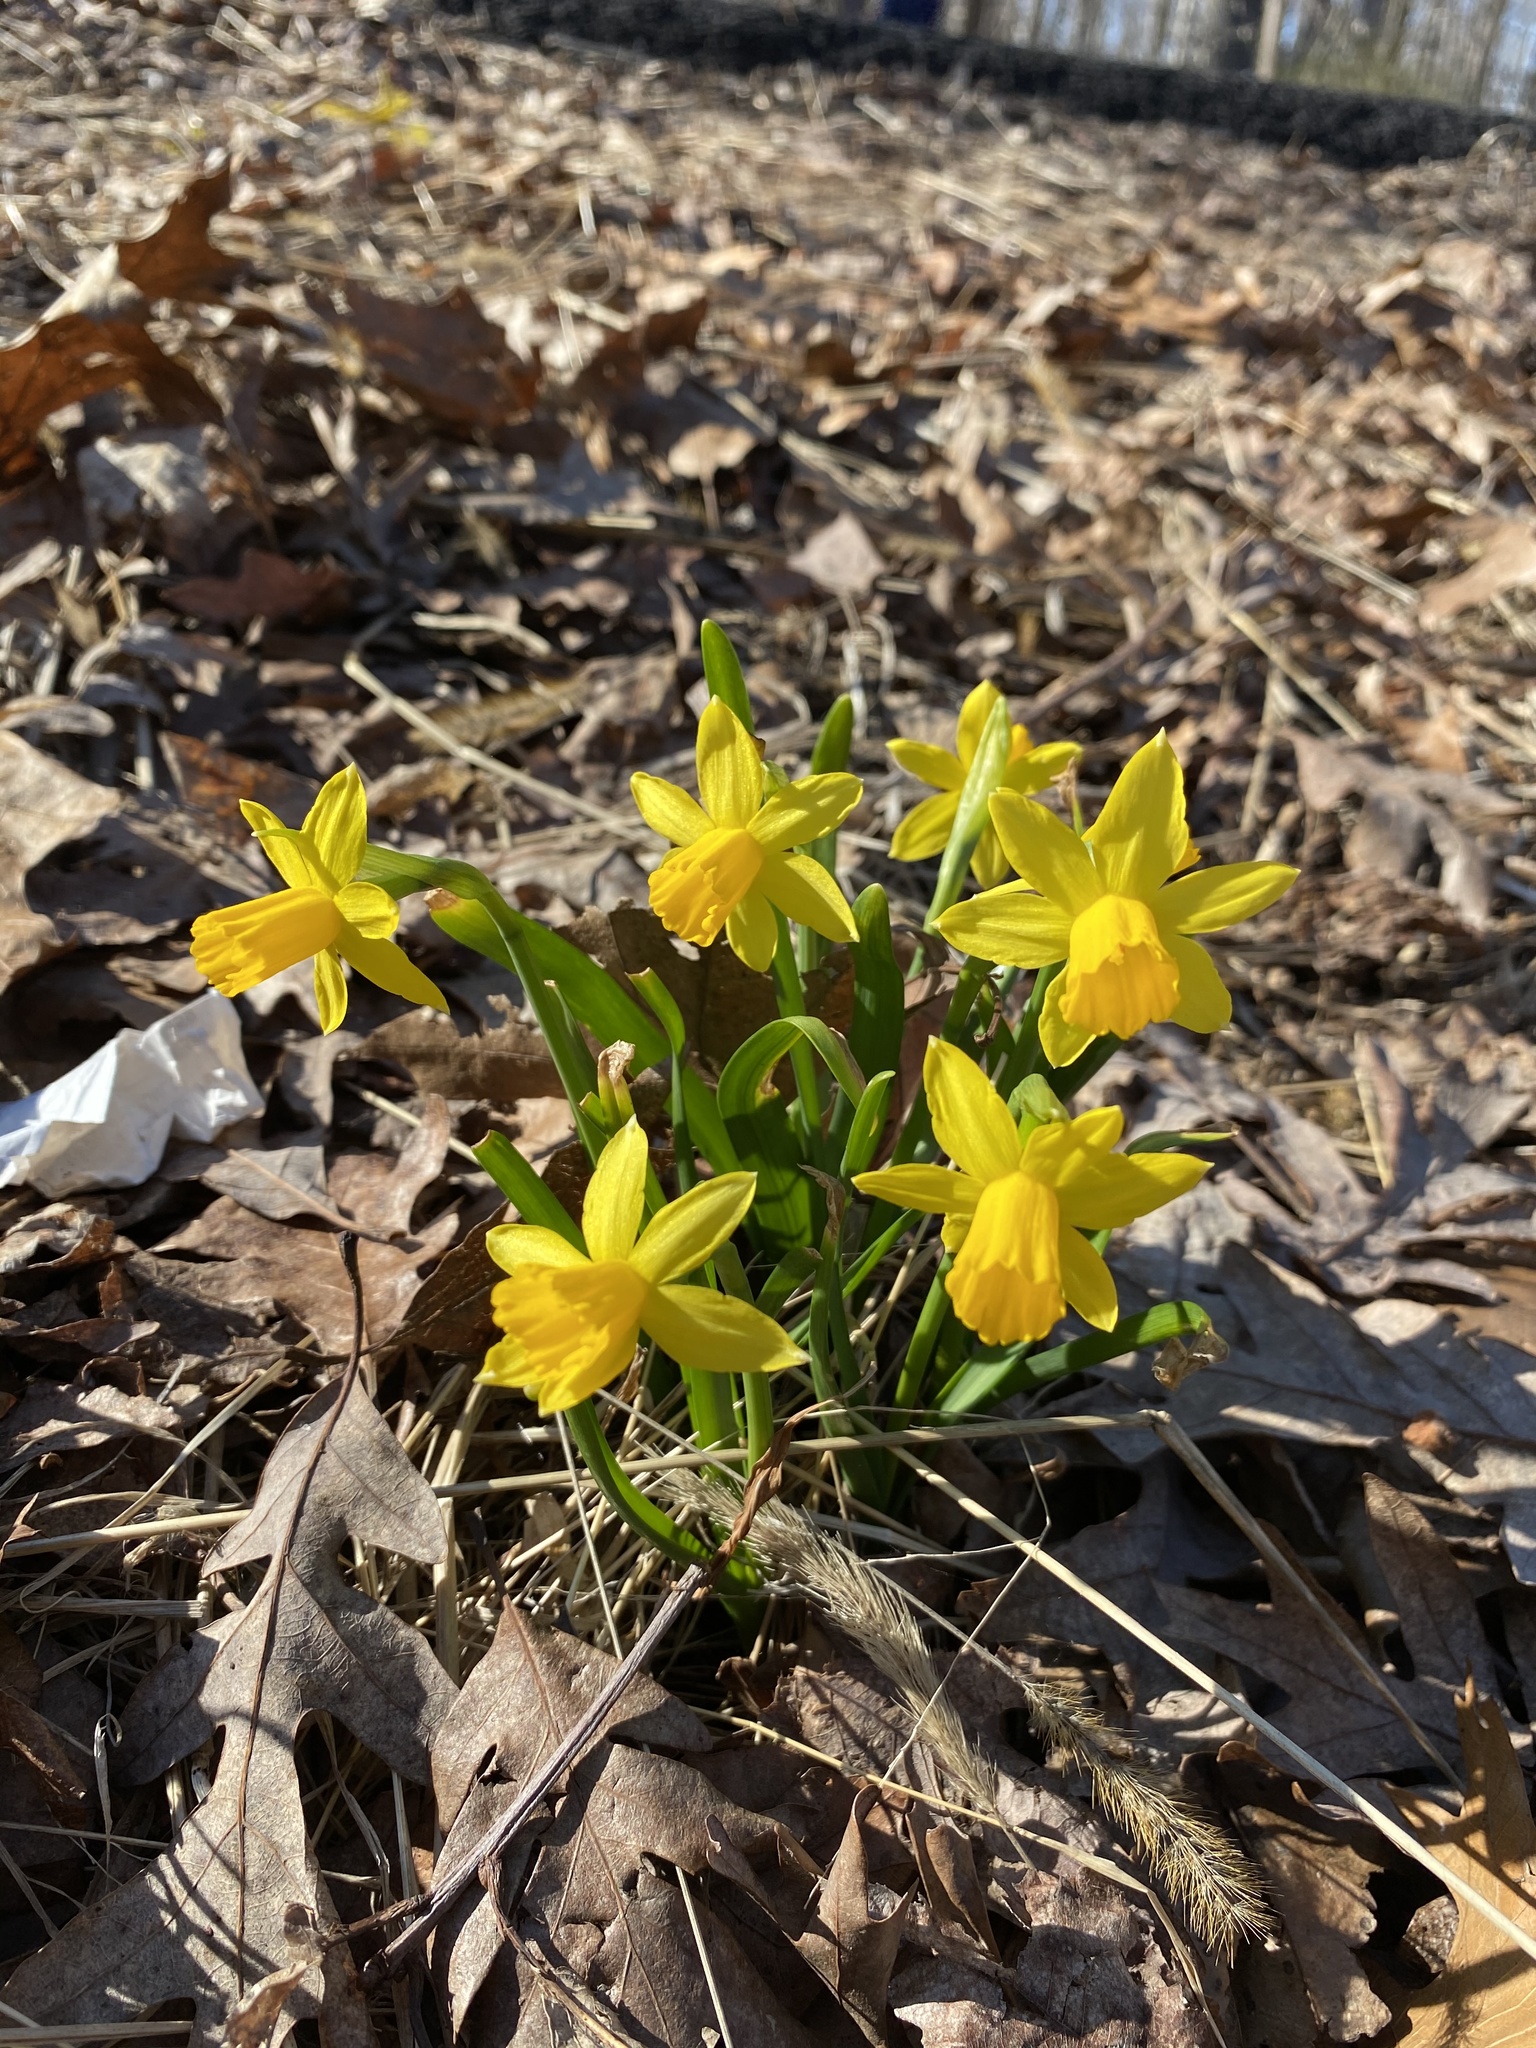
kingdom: Plantae
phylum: Tracheophyta
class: Liliopsida
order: Asparagales
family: Amaryllidaceae
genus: Narcissus
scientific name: Narcissus cyclazetta
